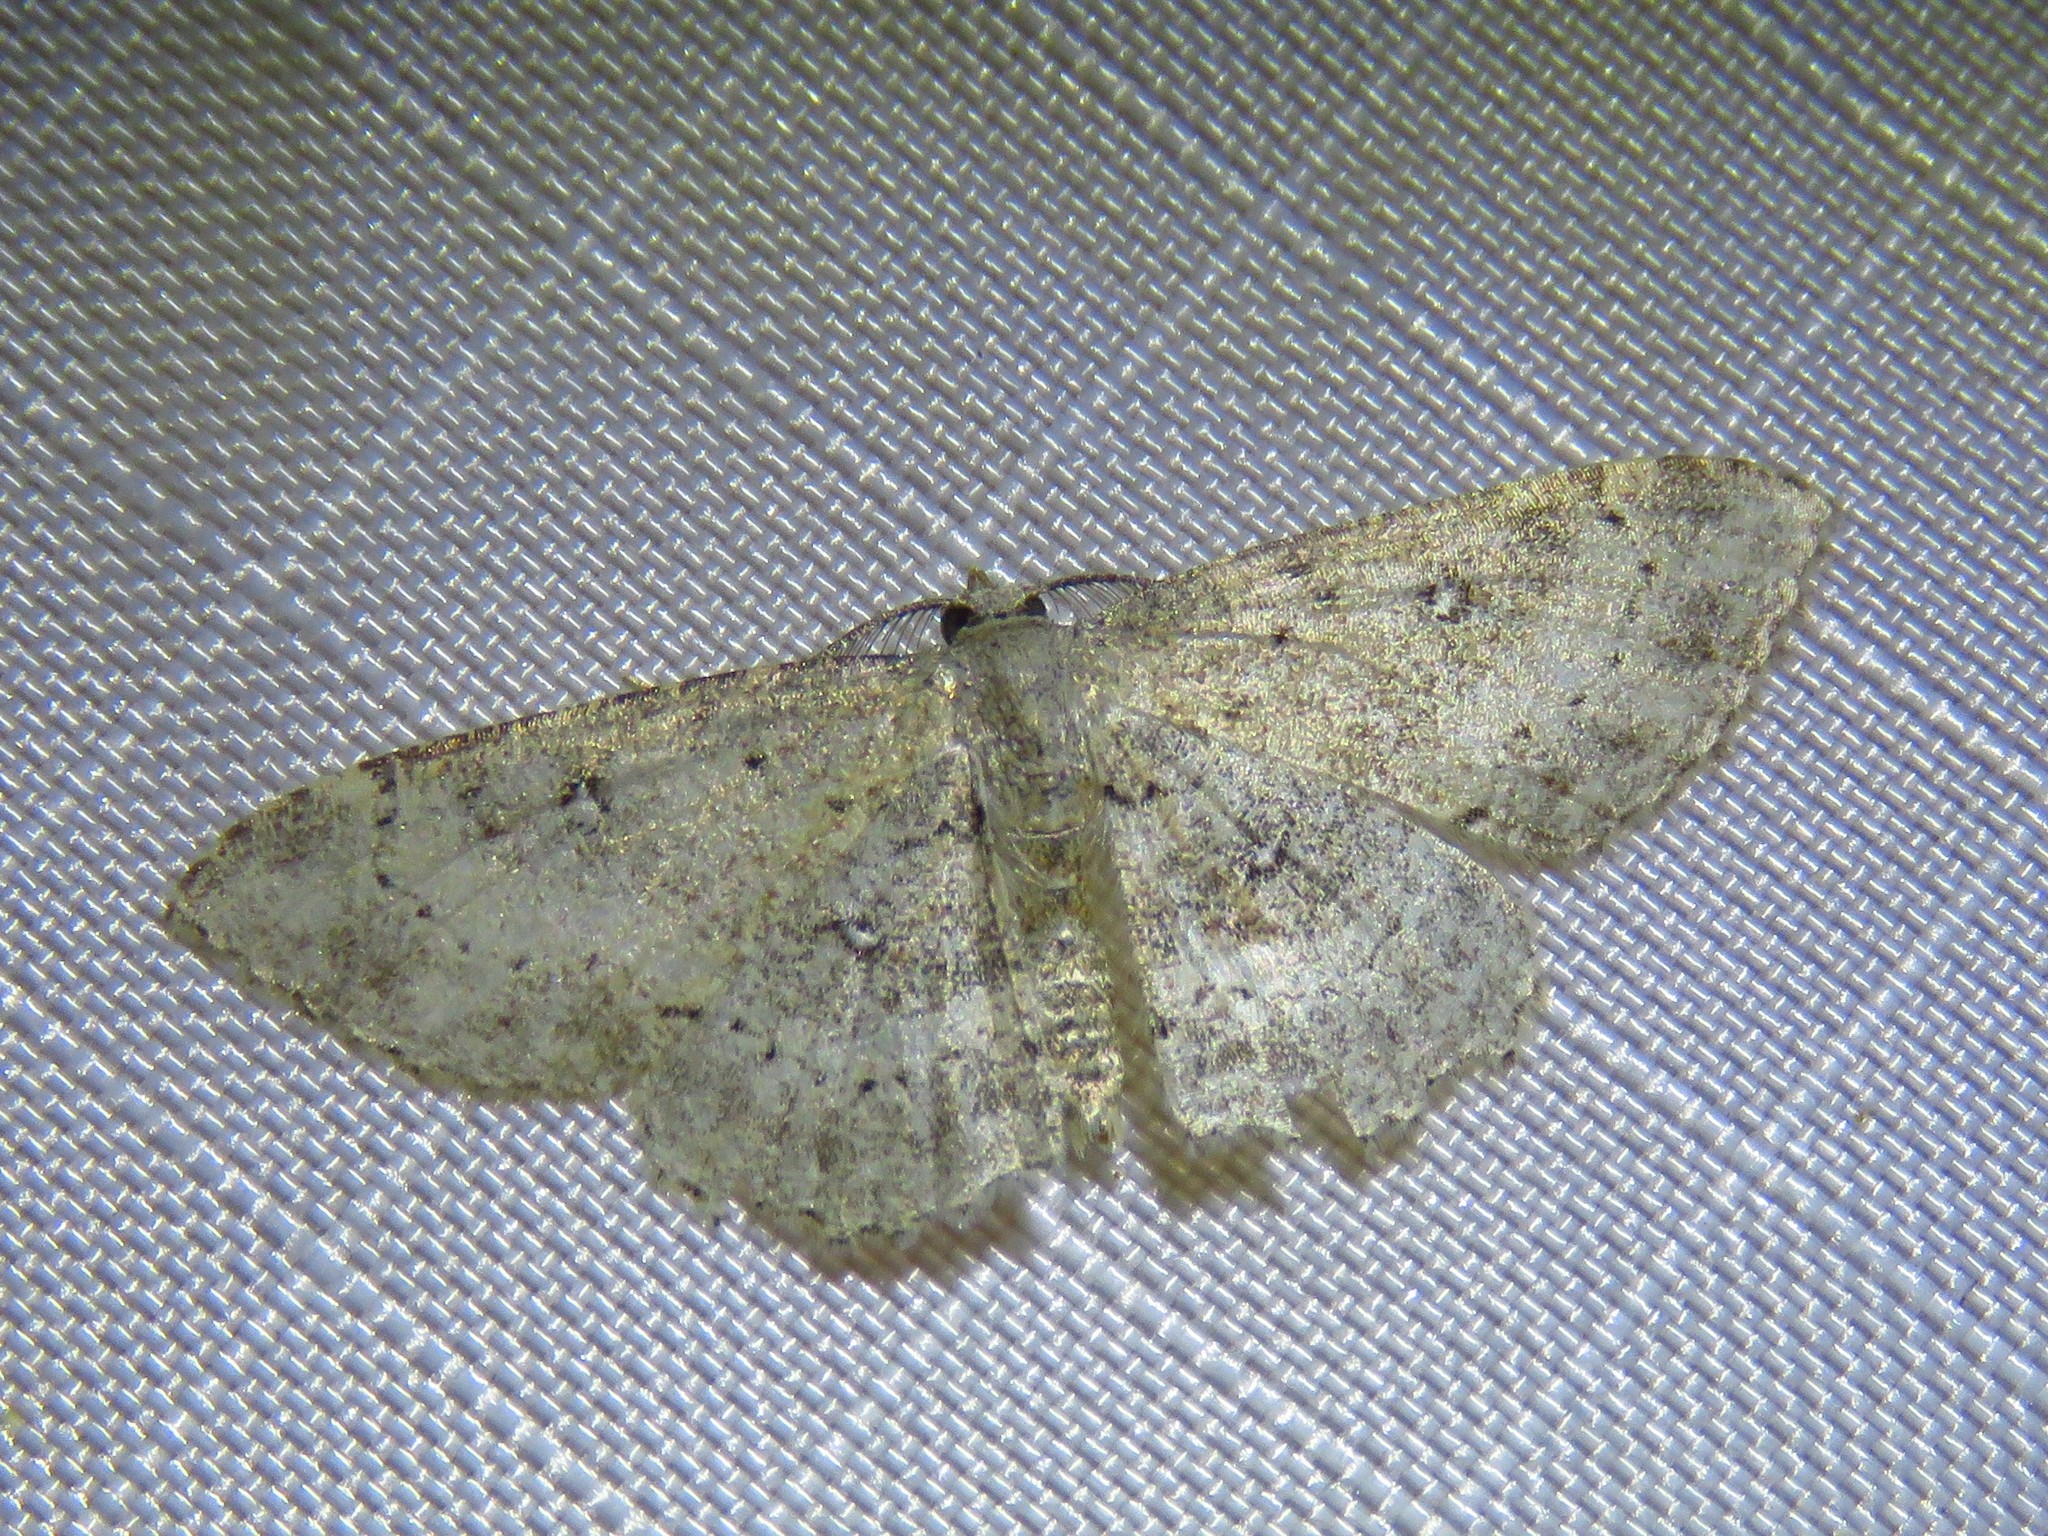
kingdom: Animalia
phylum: Arthropoda
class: Insecta
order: Lepidoptera
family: Geometridae
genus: Cyclophora
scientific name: Cyclophora nanaria
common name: Cankerworm
